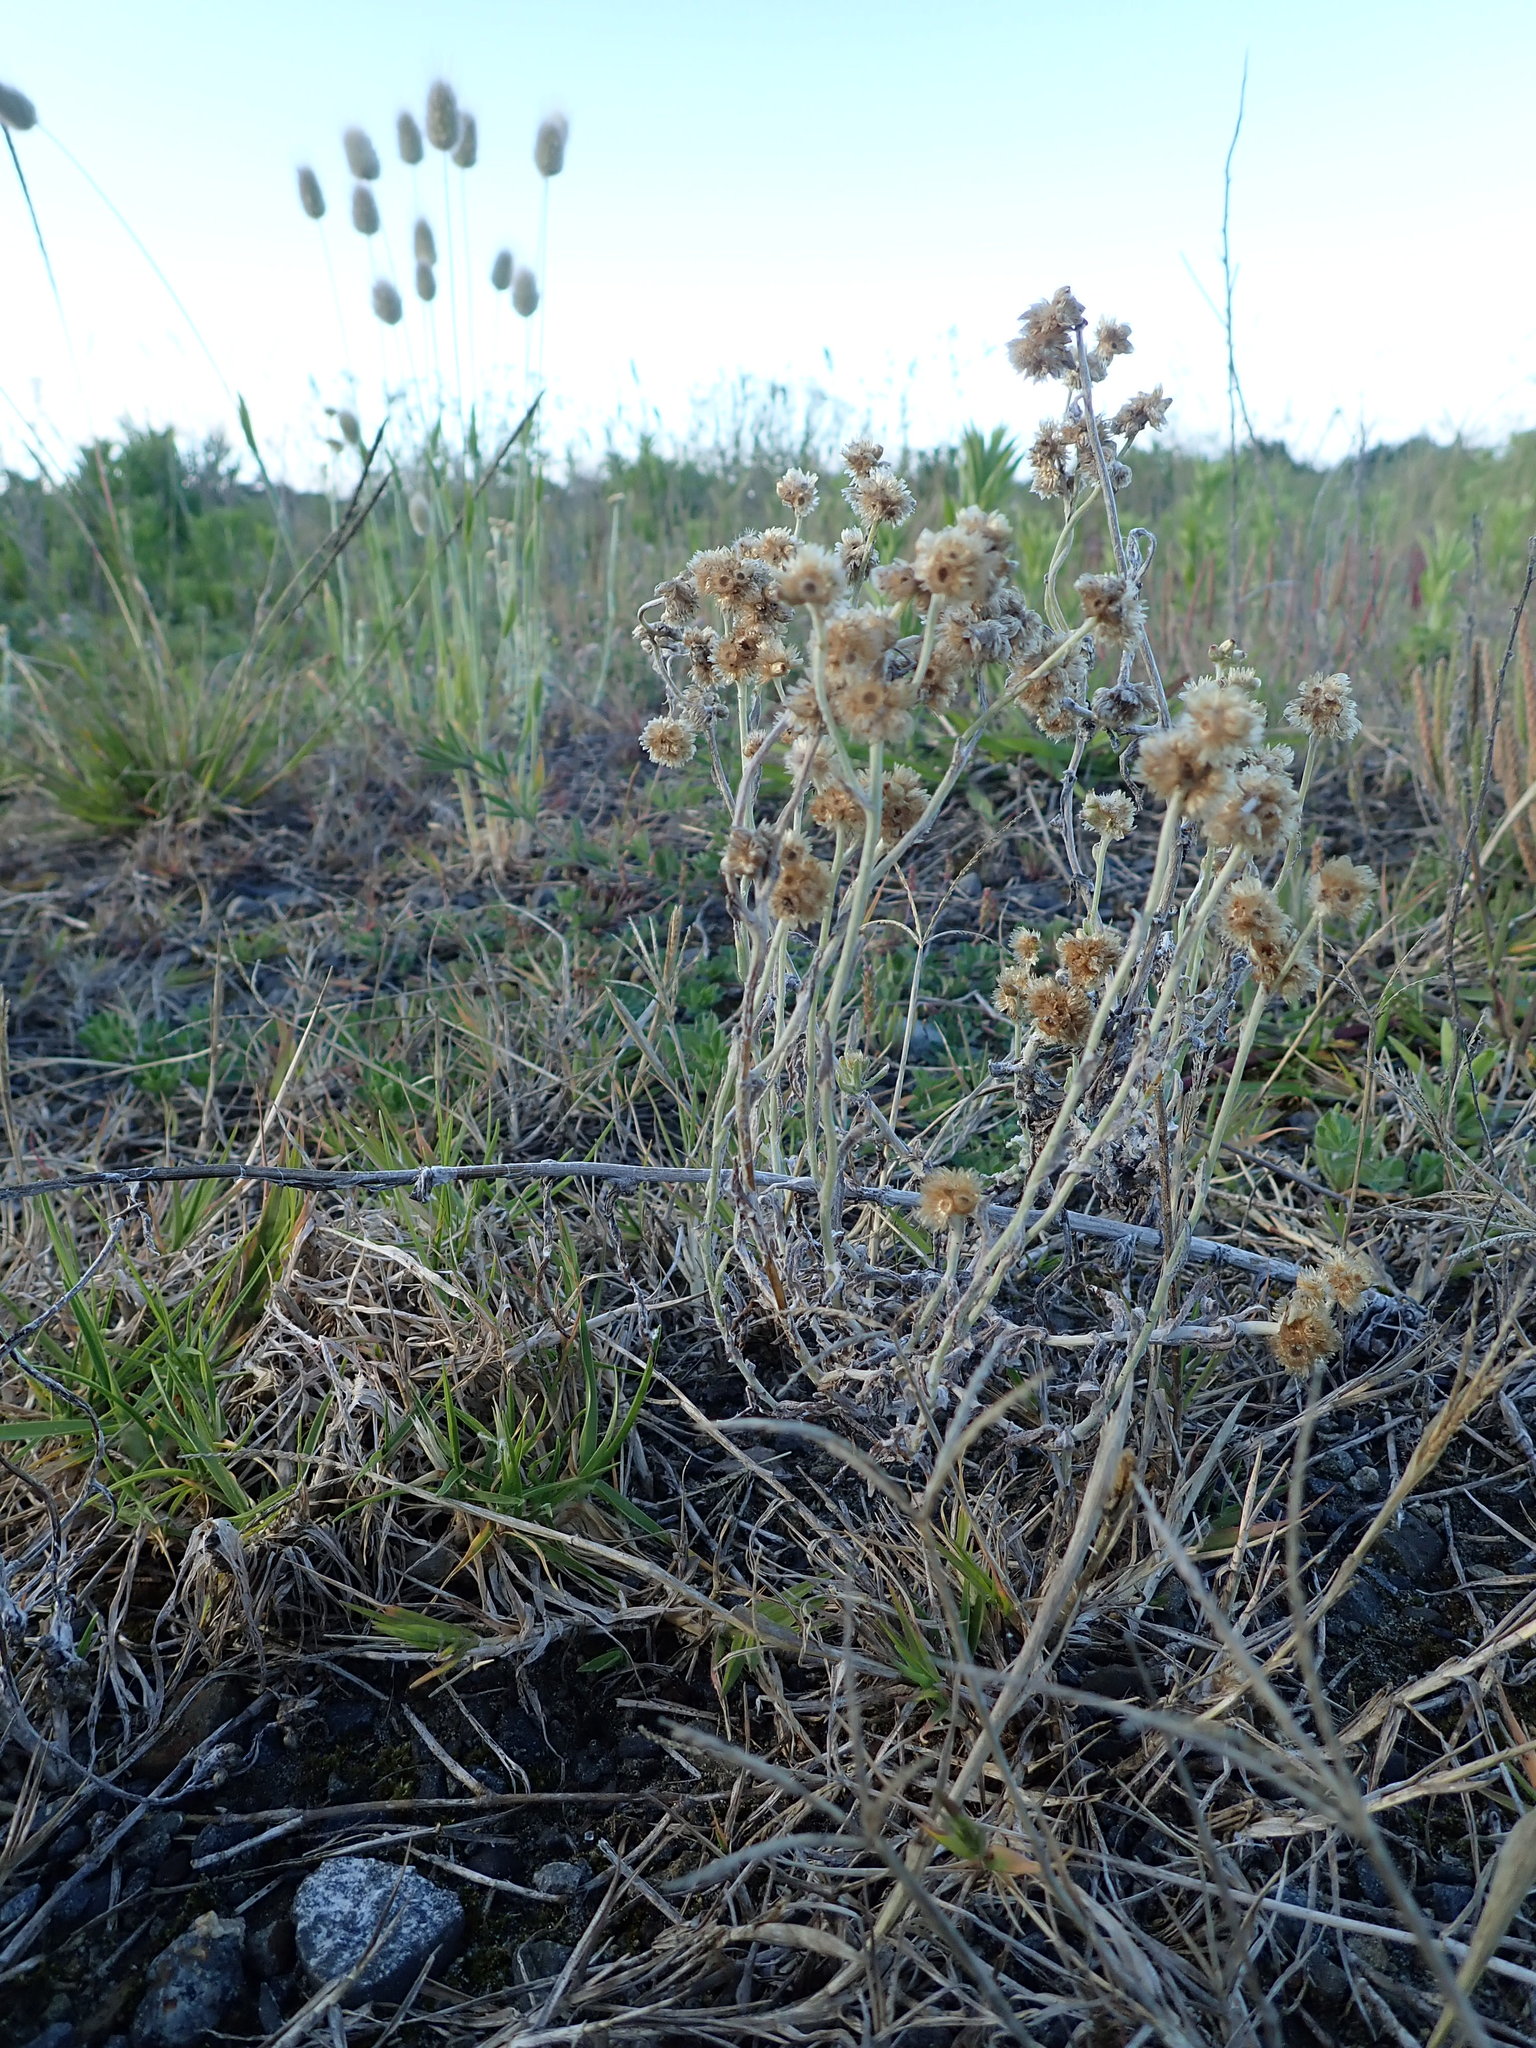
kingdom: Plantae
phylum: Tracheophyta
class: Magnoliopsida
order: Asterales
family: Asteraceae
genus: Helichrysum
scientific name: Helichrysum luteoalbum
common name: Daisy
